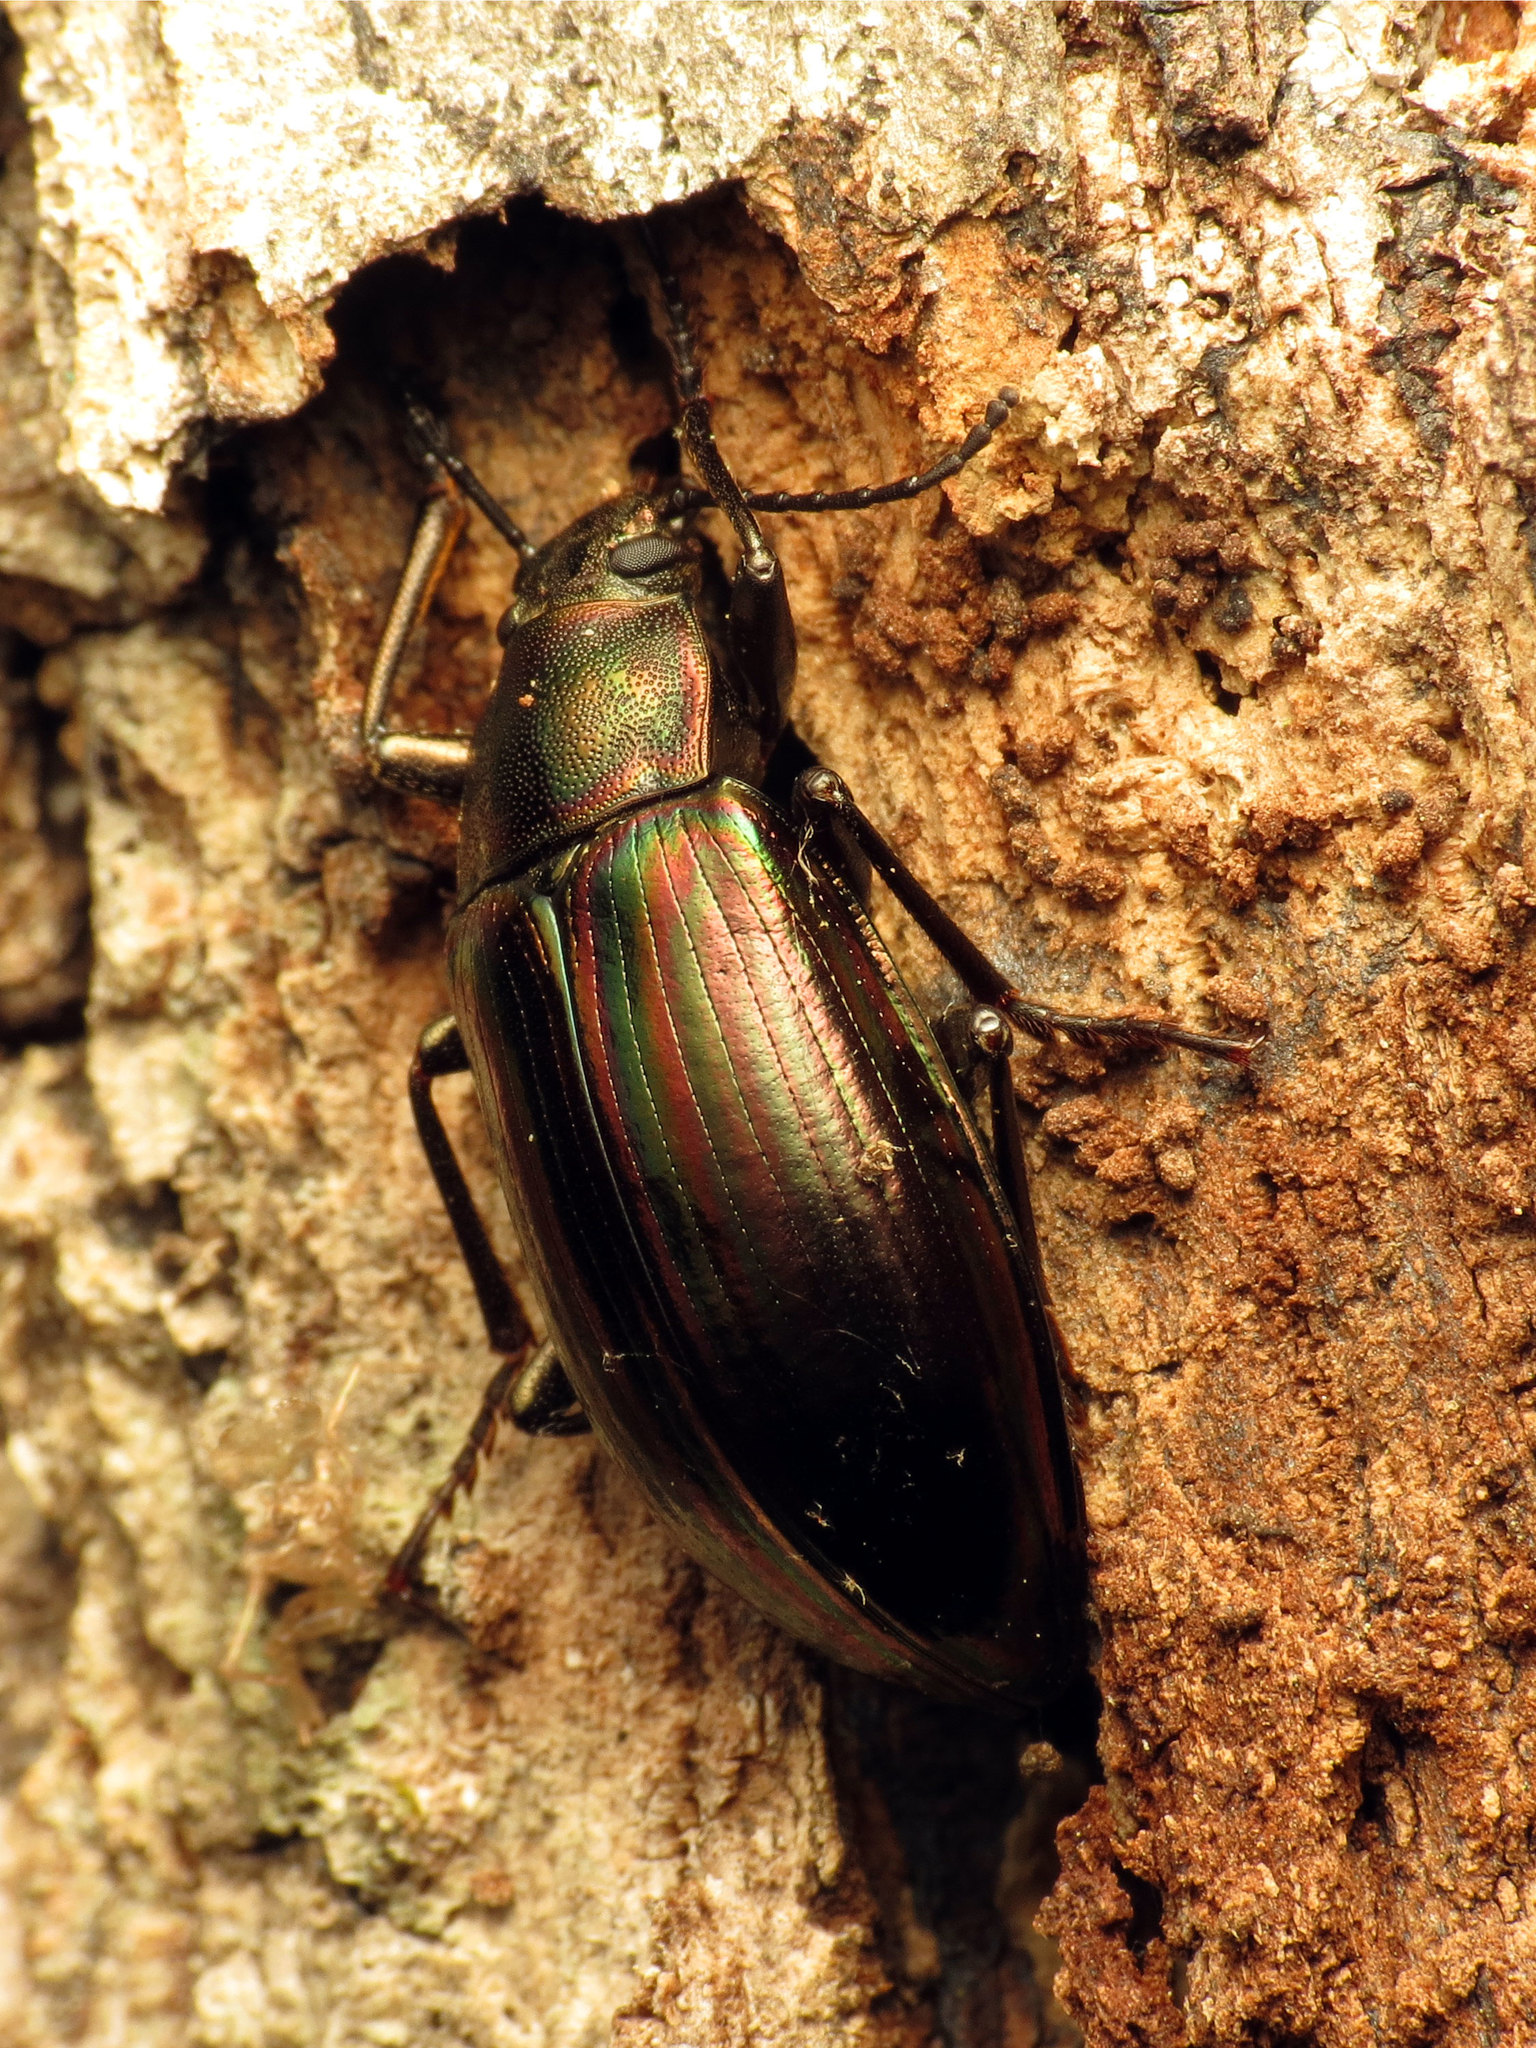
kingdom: Animalia
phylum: Arthropoda
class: Insecta
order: Coleoptera
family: Tenebrionidae
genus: Tarpela
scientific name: Tarpela micans
